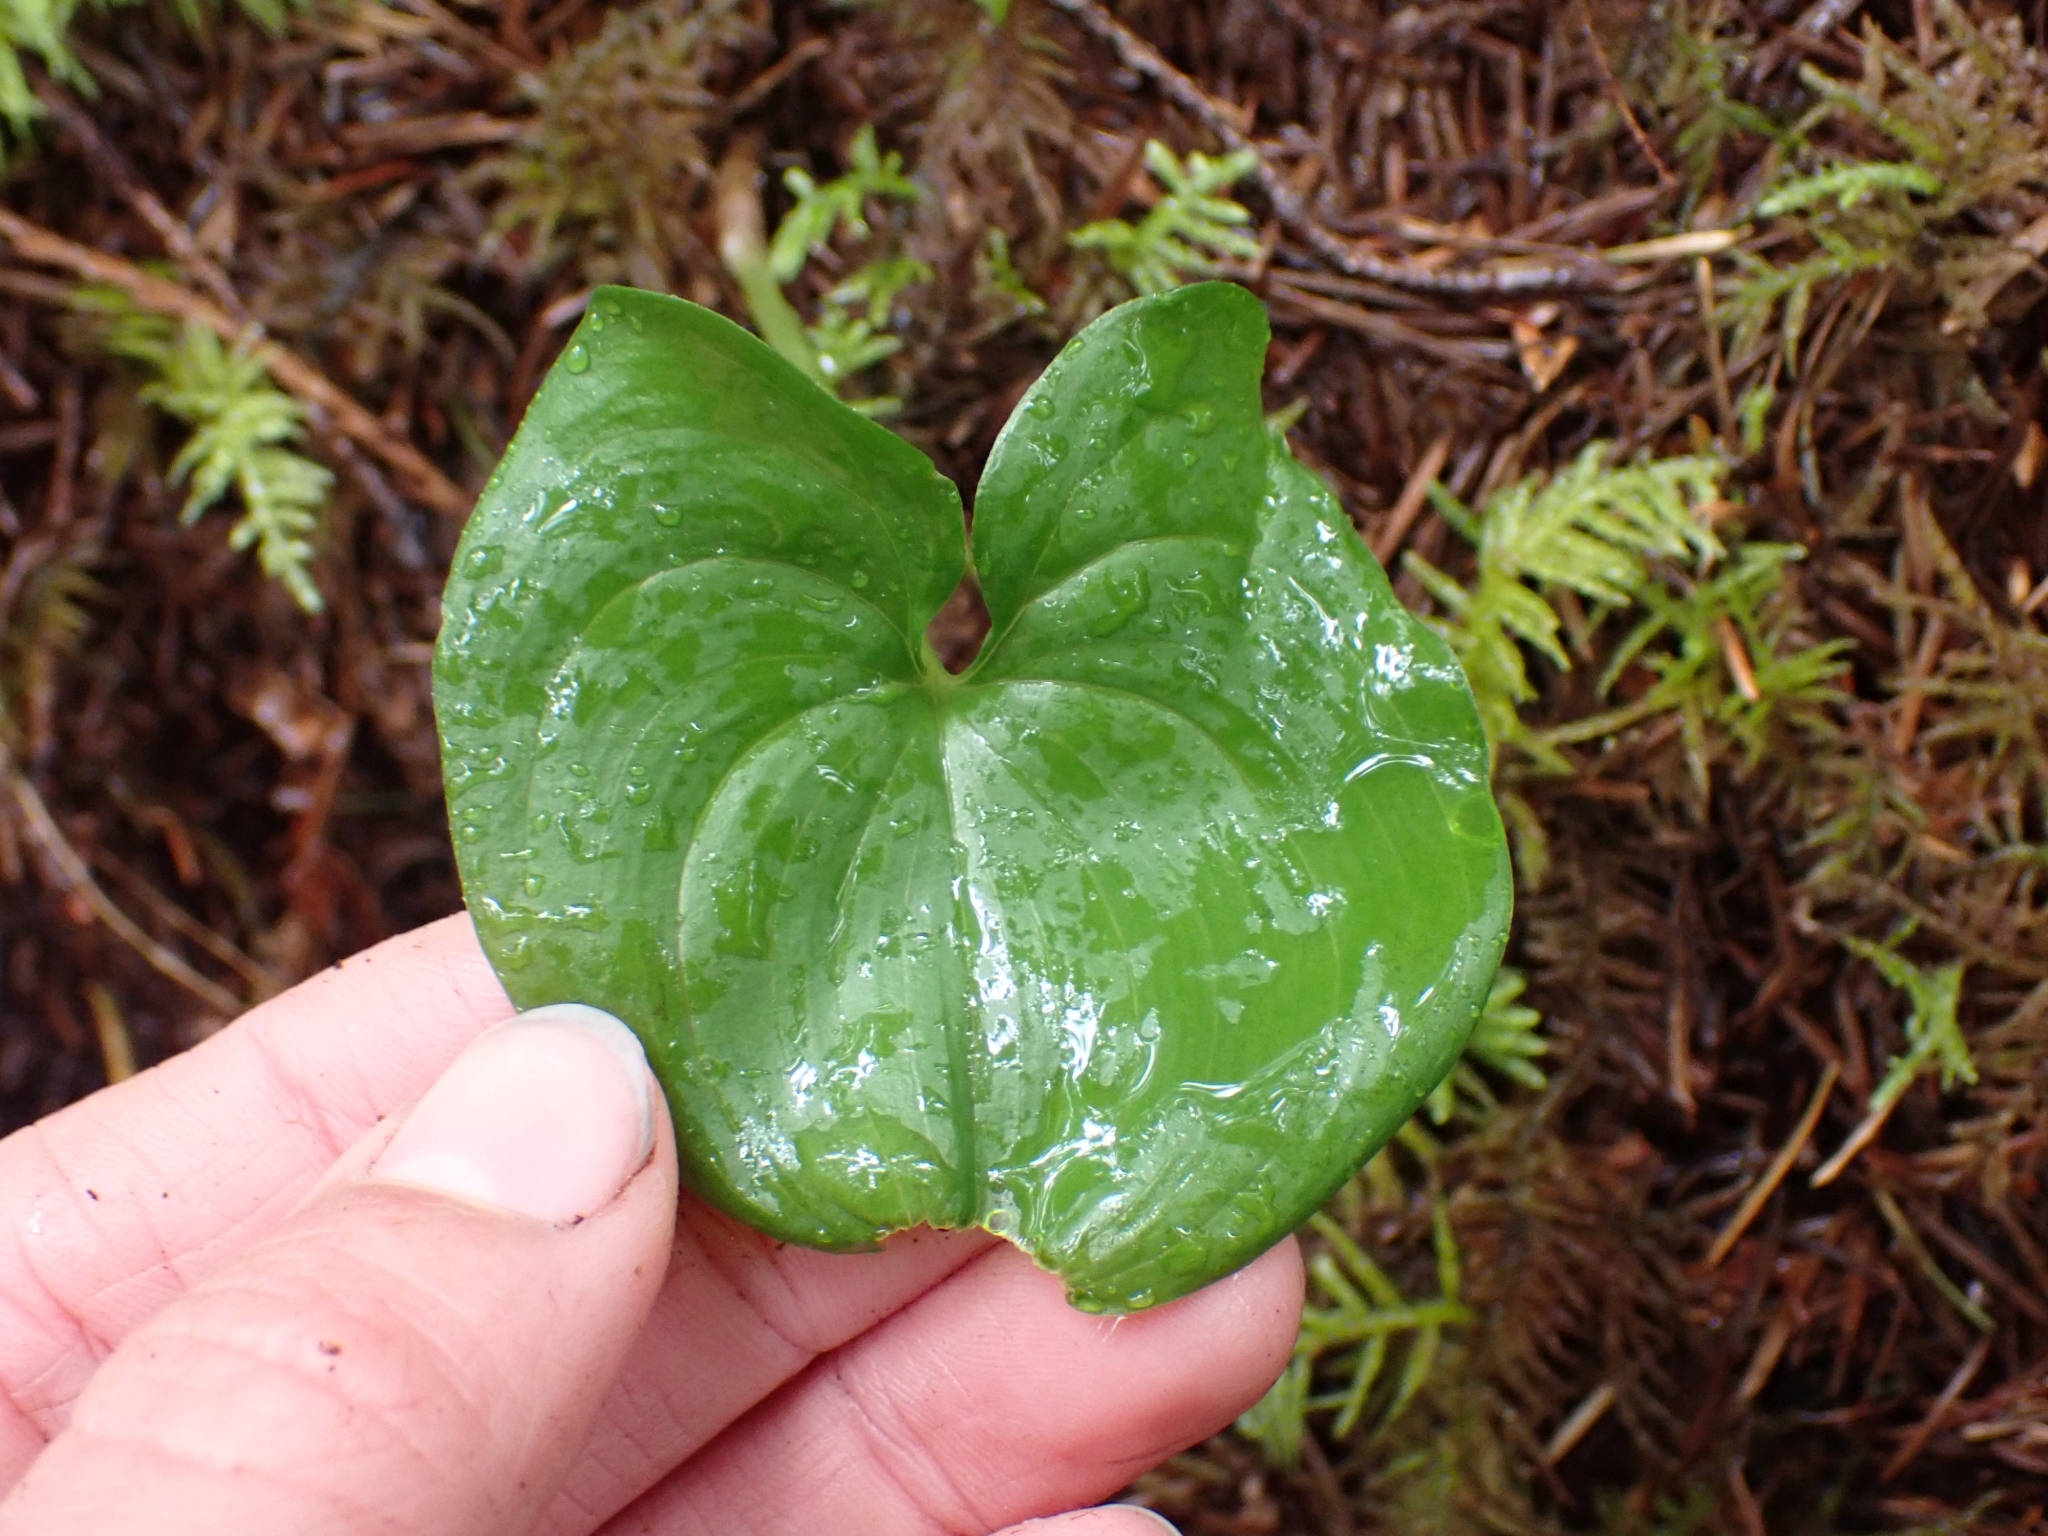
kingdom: Plantae
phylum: Tracheophyta
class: Liliopsida
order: Asparagales
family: Asparagaceae
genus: Maianthemum
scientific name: Maianthemum dilatatum
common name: False lily-of-the-valley
